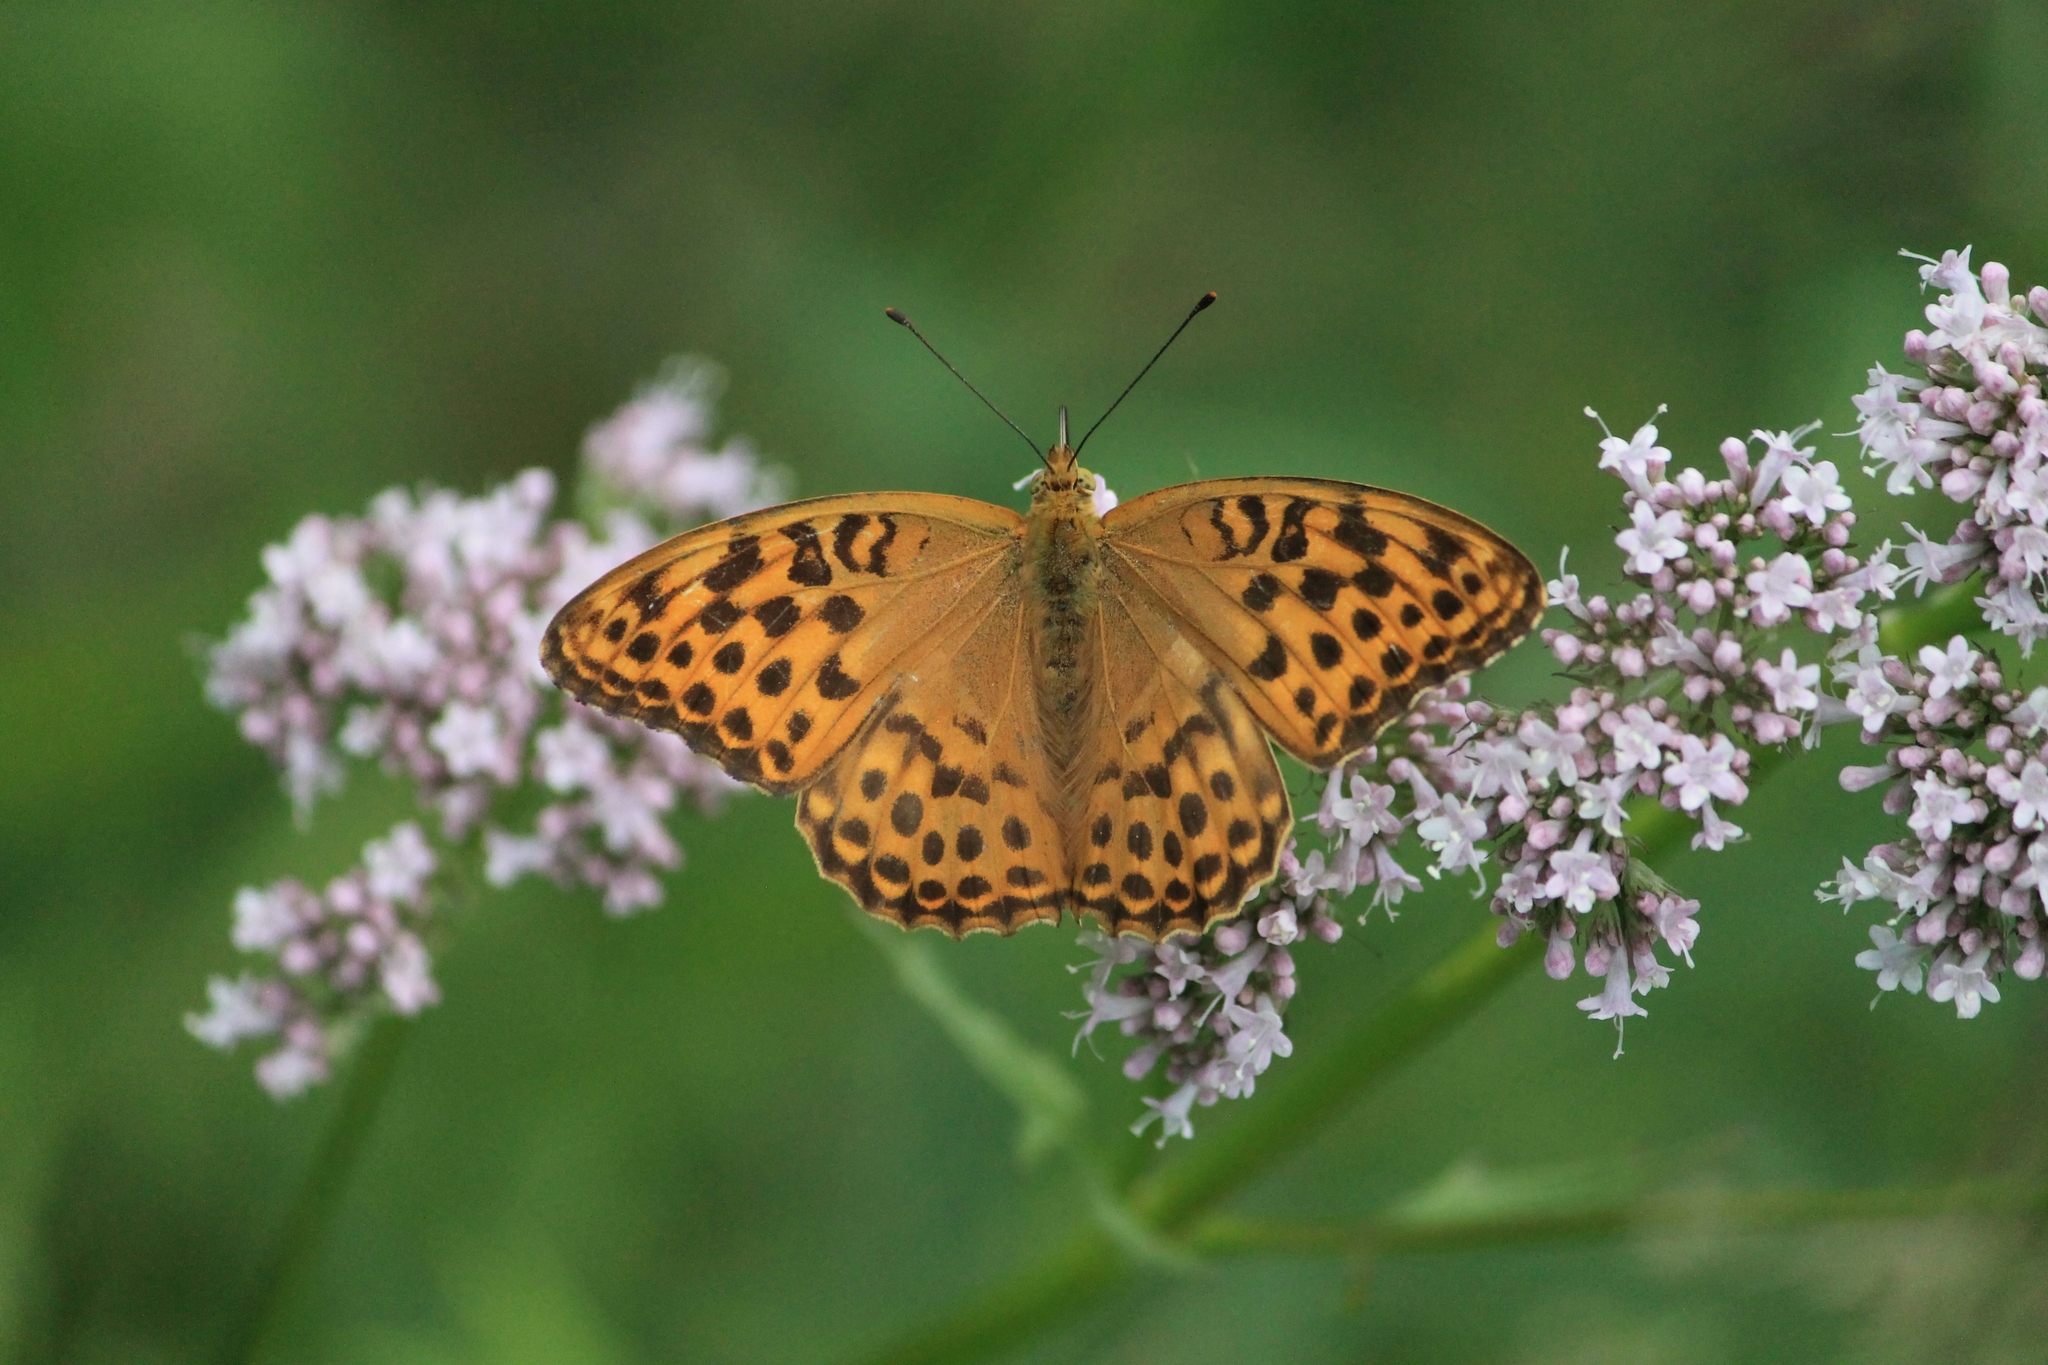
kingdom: Animalia
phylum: Arthropoda
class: Insecta
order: Lepidoptera
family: Nymphalidae
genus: Argynnis
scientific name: Argynnis paphia
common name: Silver-washed fritillary
